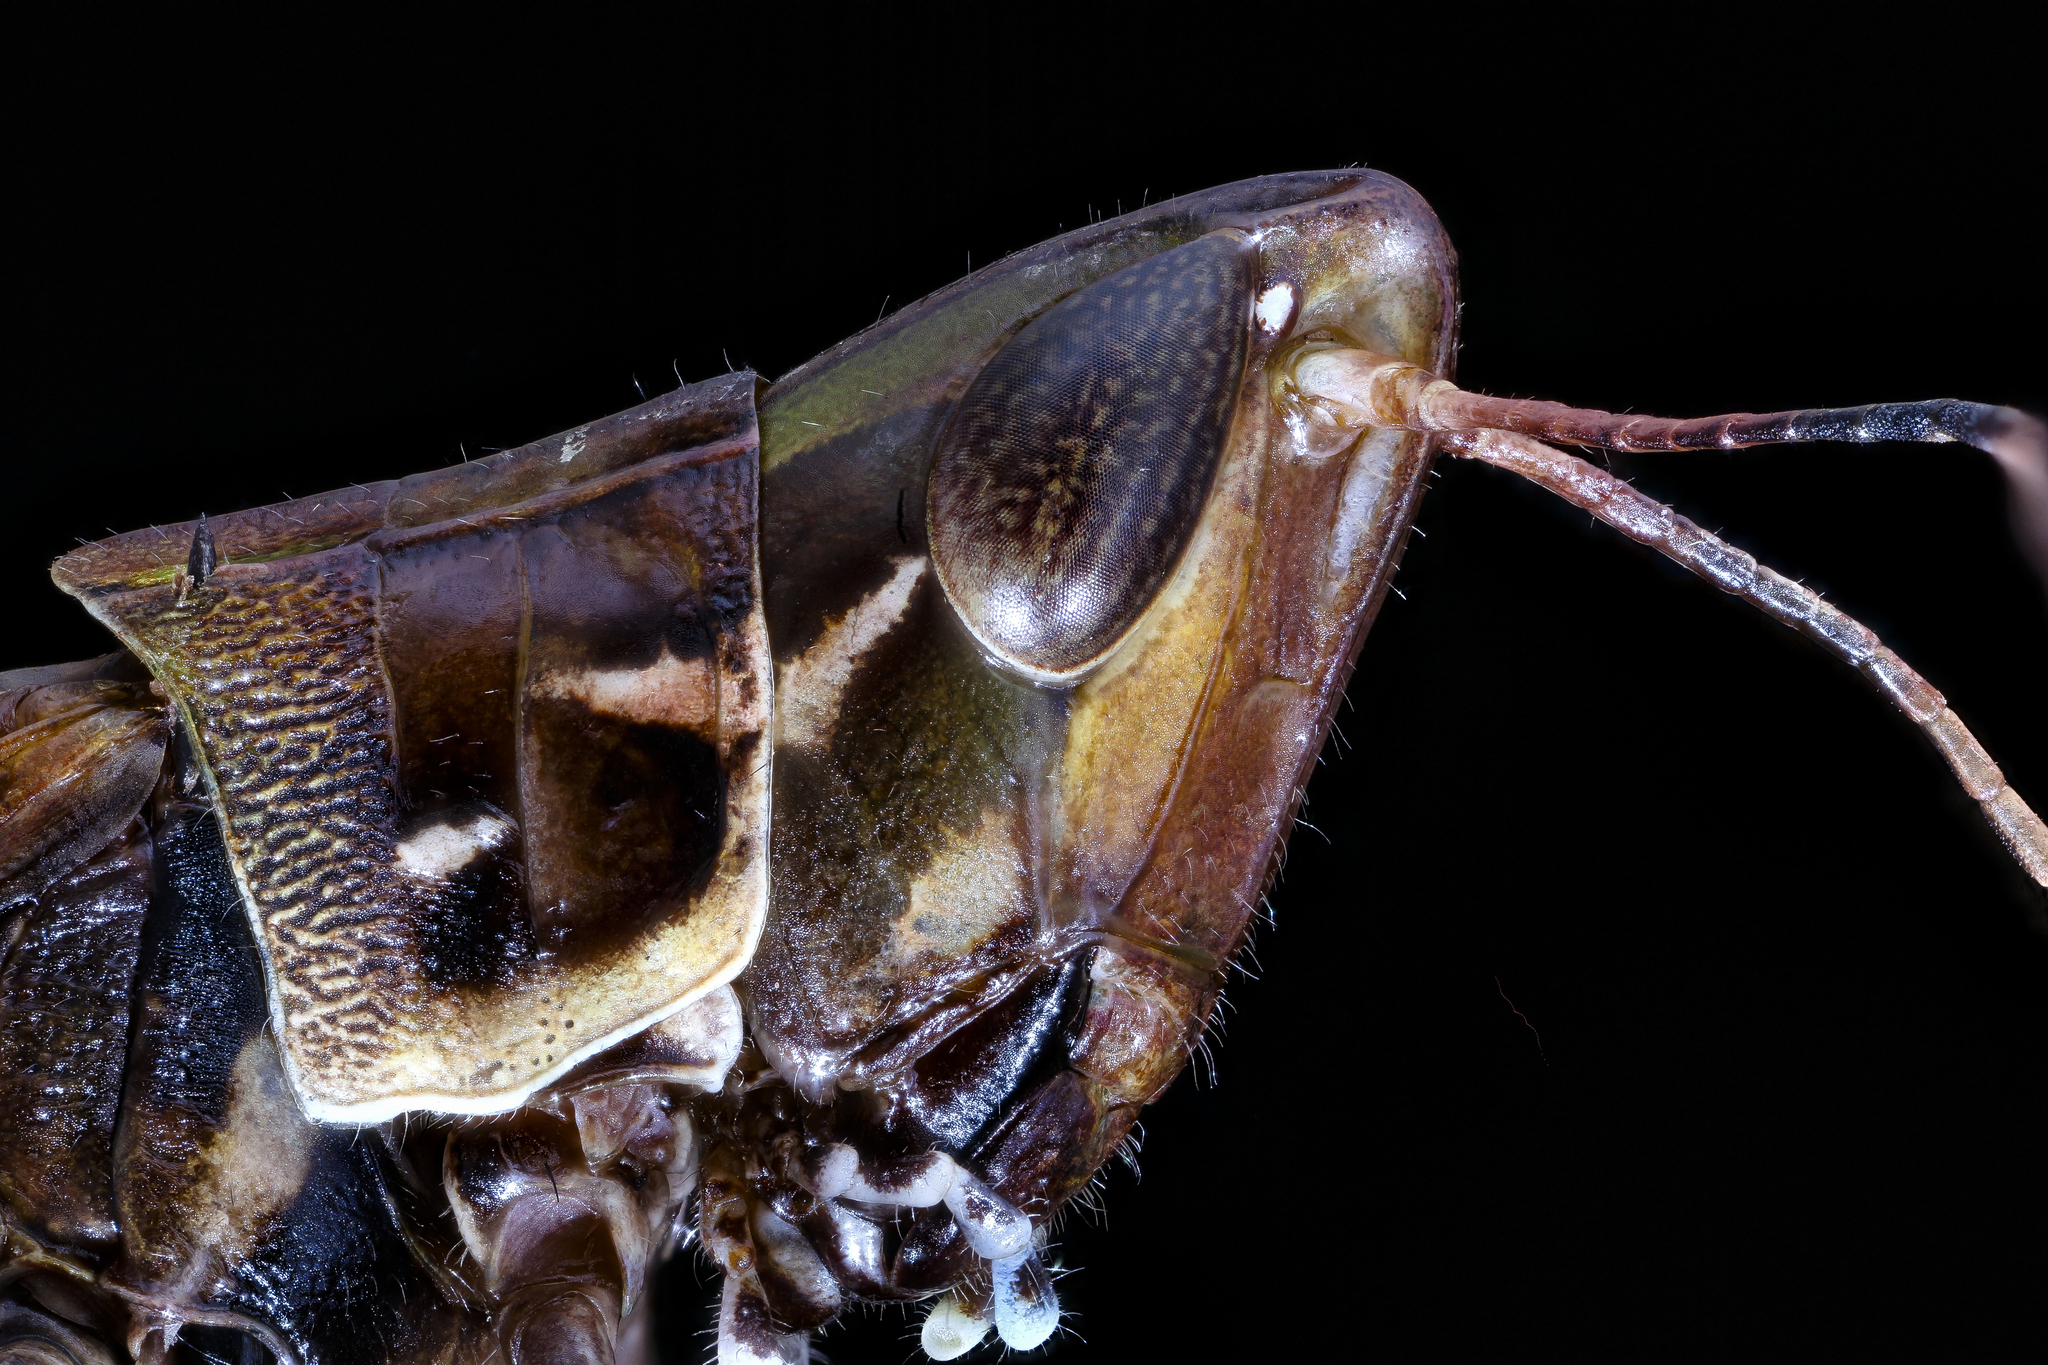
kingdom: Animalia
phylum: Arthropoda
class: Insecta
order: Orthoptera
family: Acrididae
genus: Syrbula
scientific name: Syrbula admirabilis
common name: Handsome grasshopper
